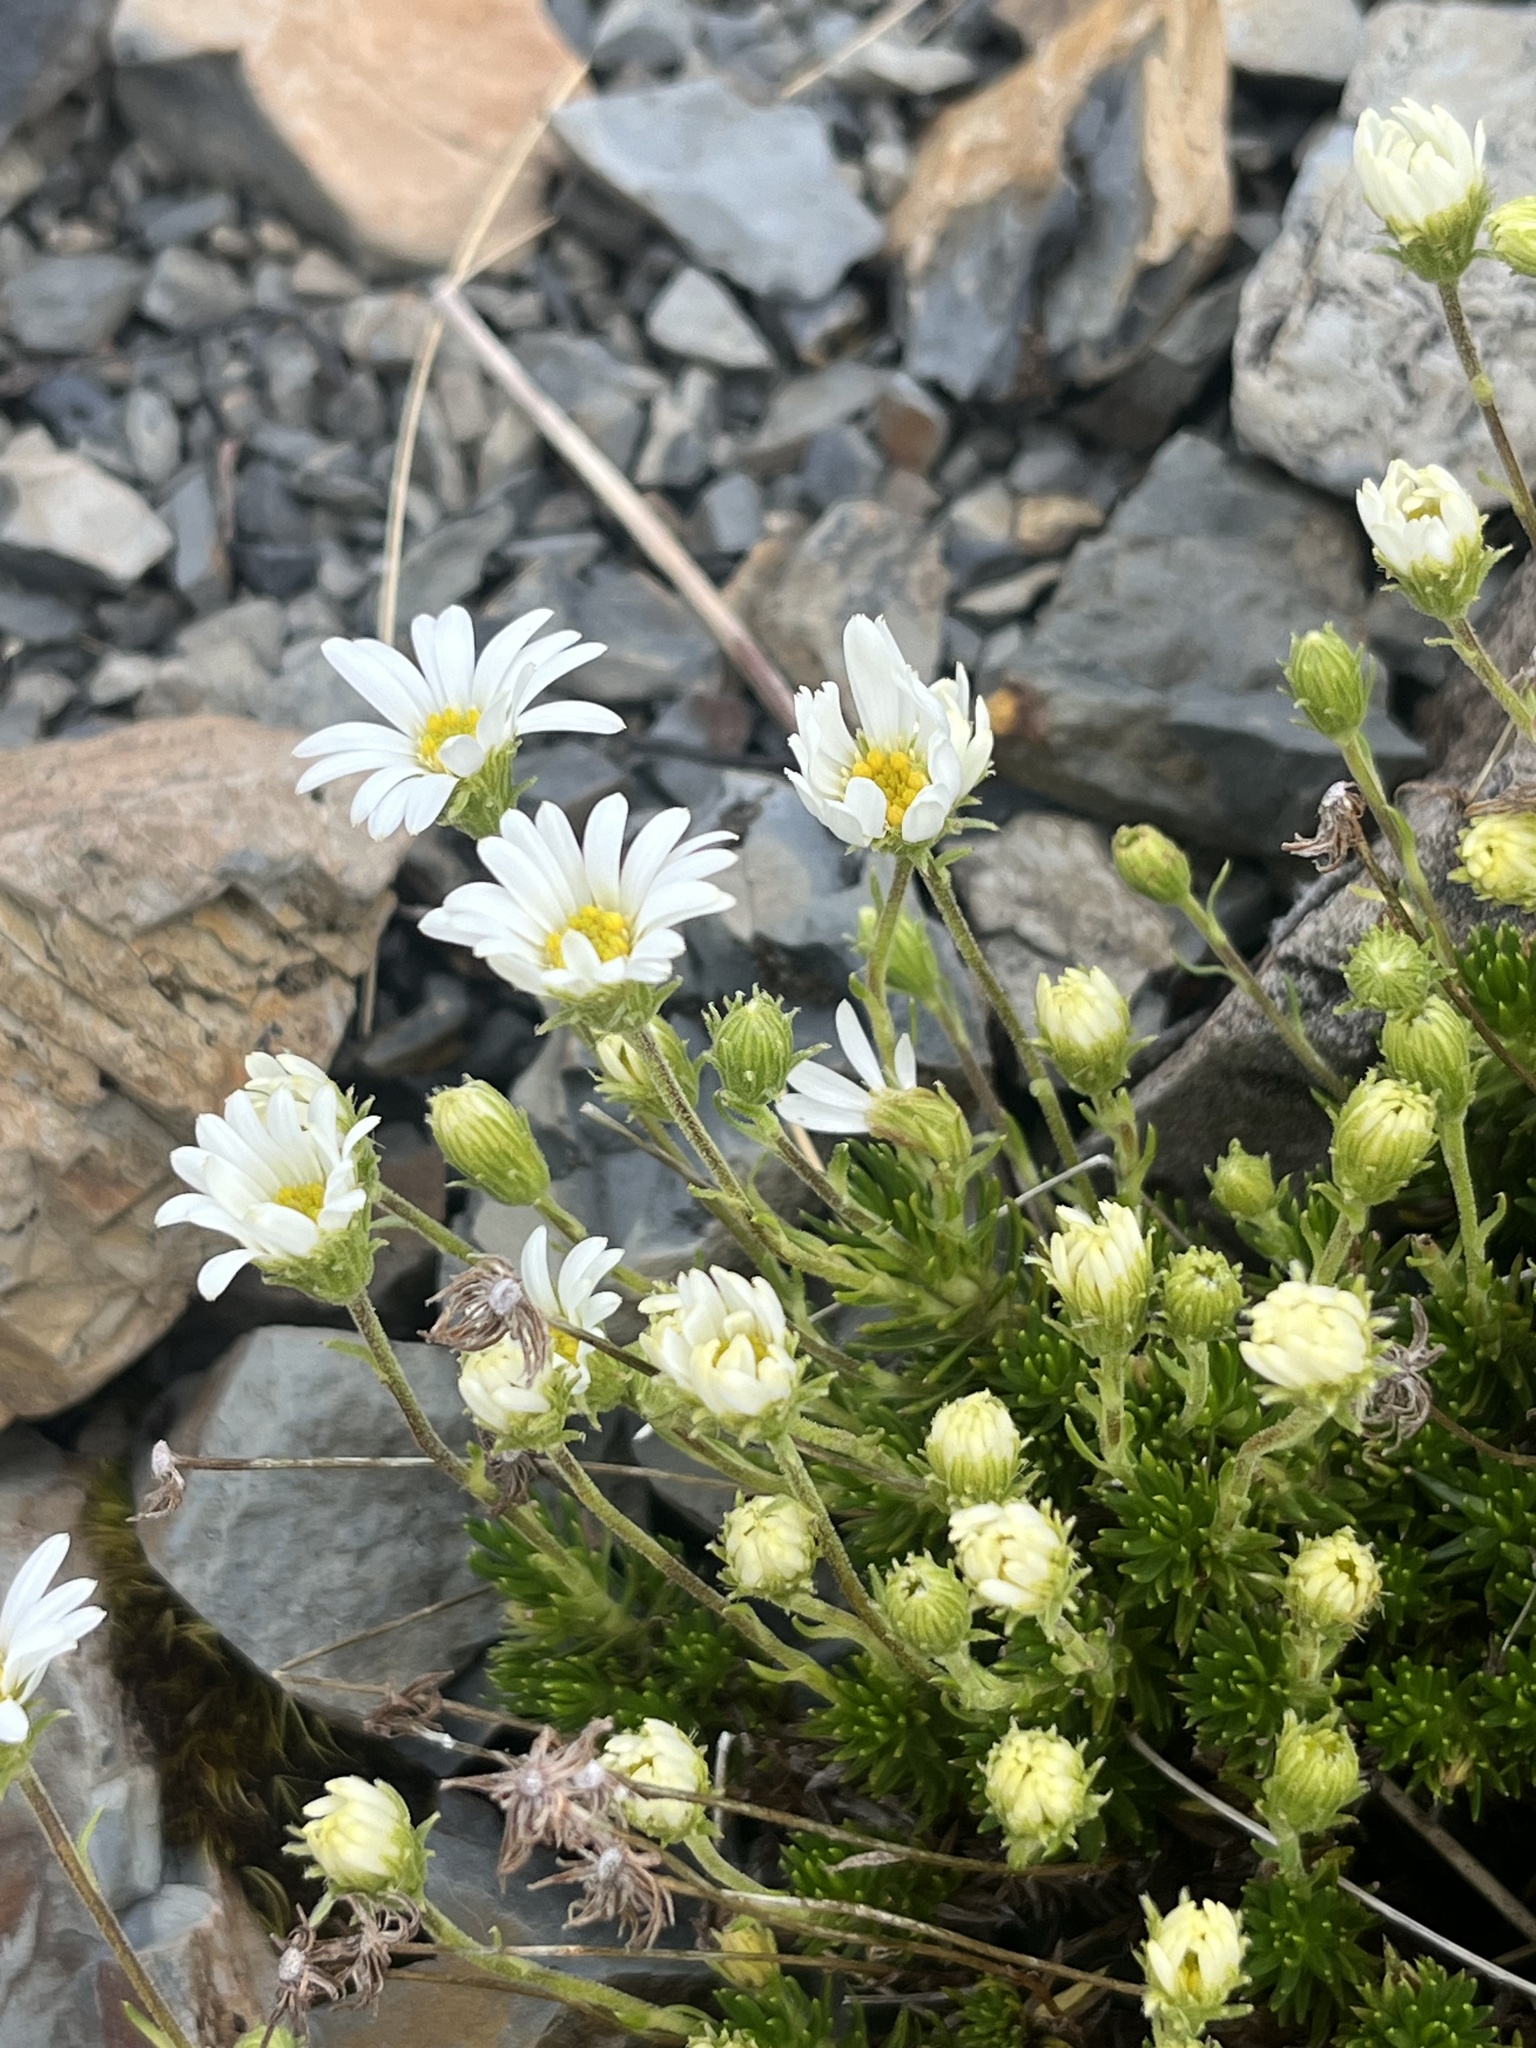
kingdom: Plantae
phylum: Tracheophyta
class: Magnoliopsida
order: Asterales
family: Asteraceae
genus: Celmisia
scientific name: Celmisia lateralis
